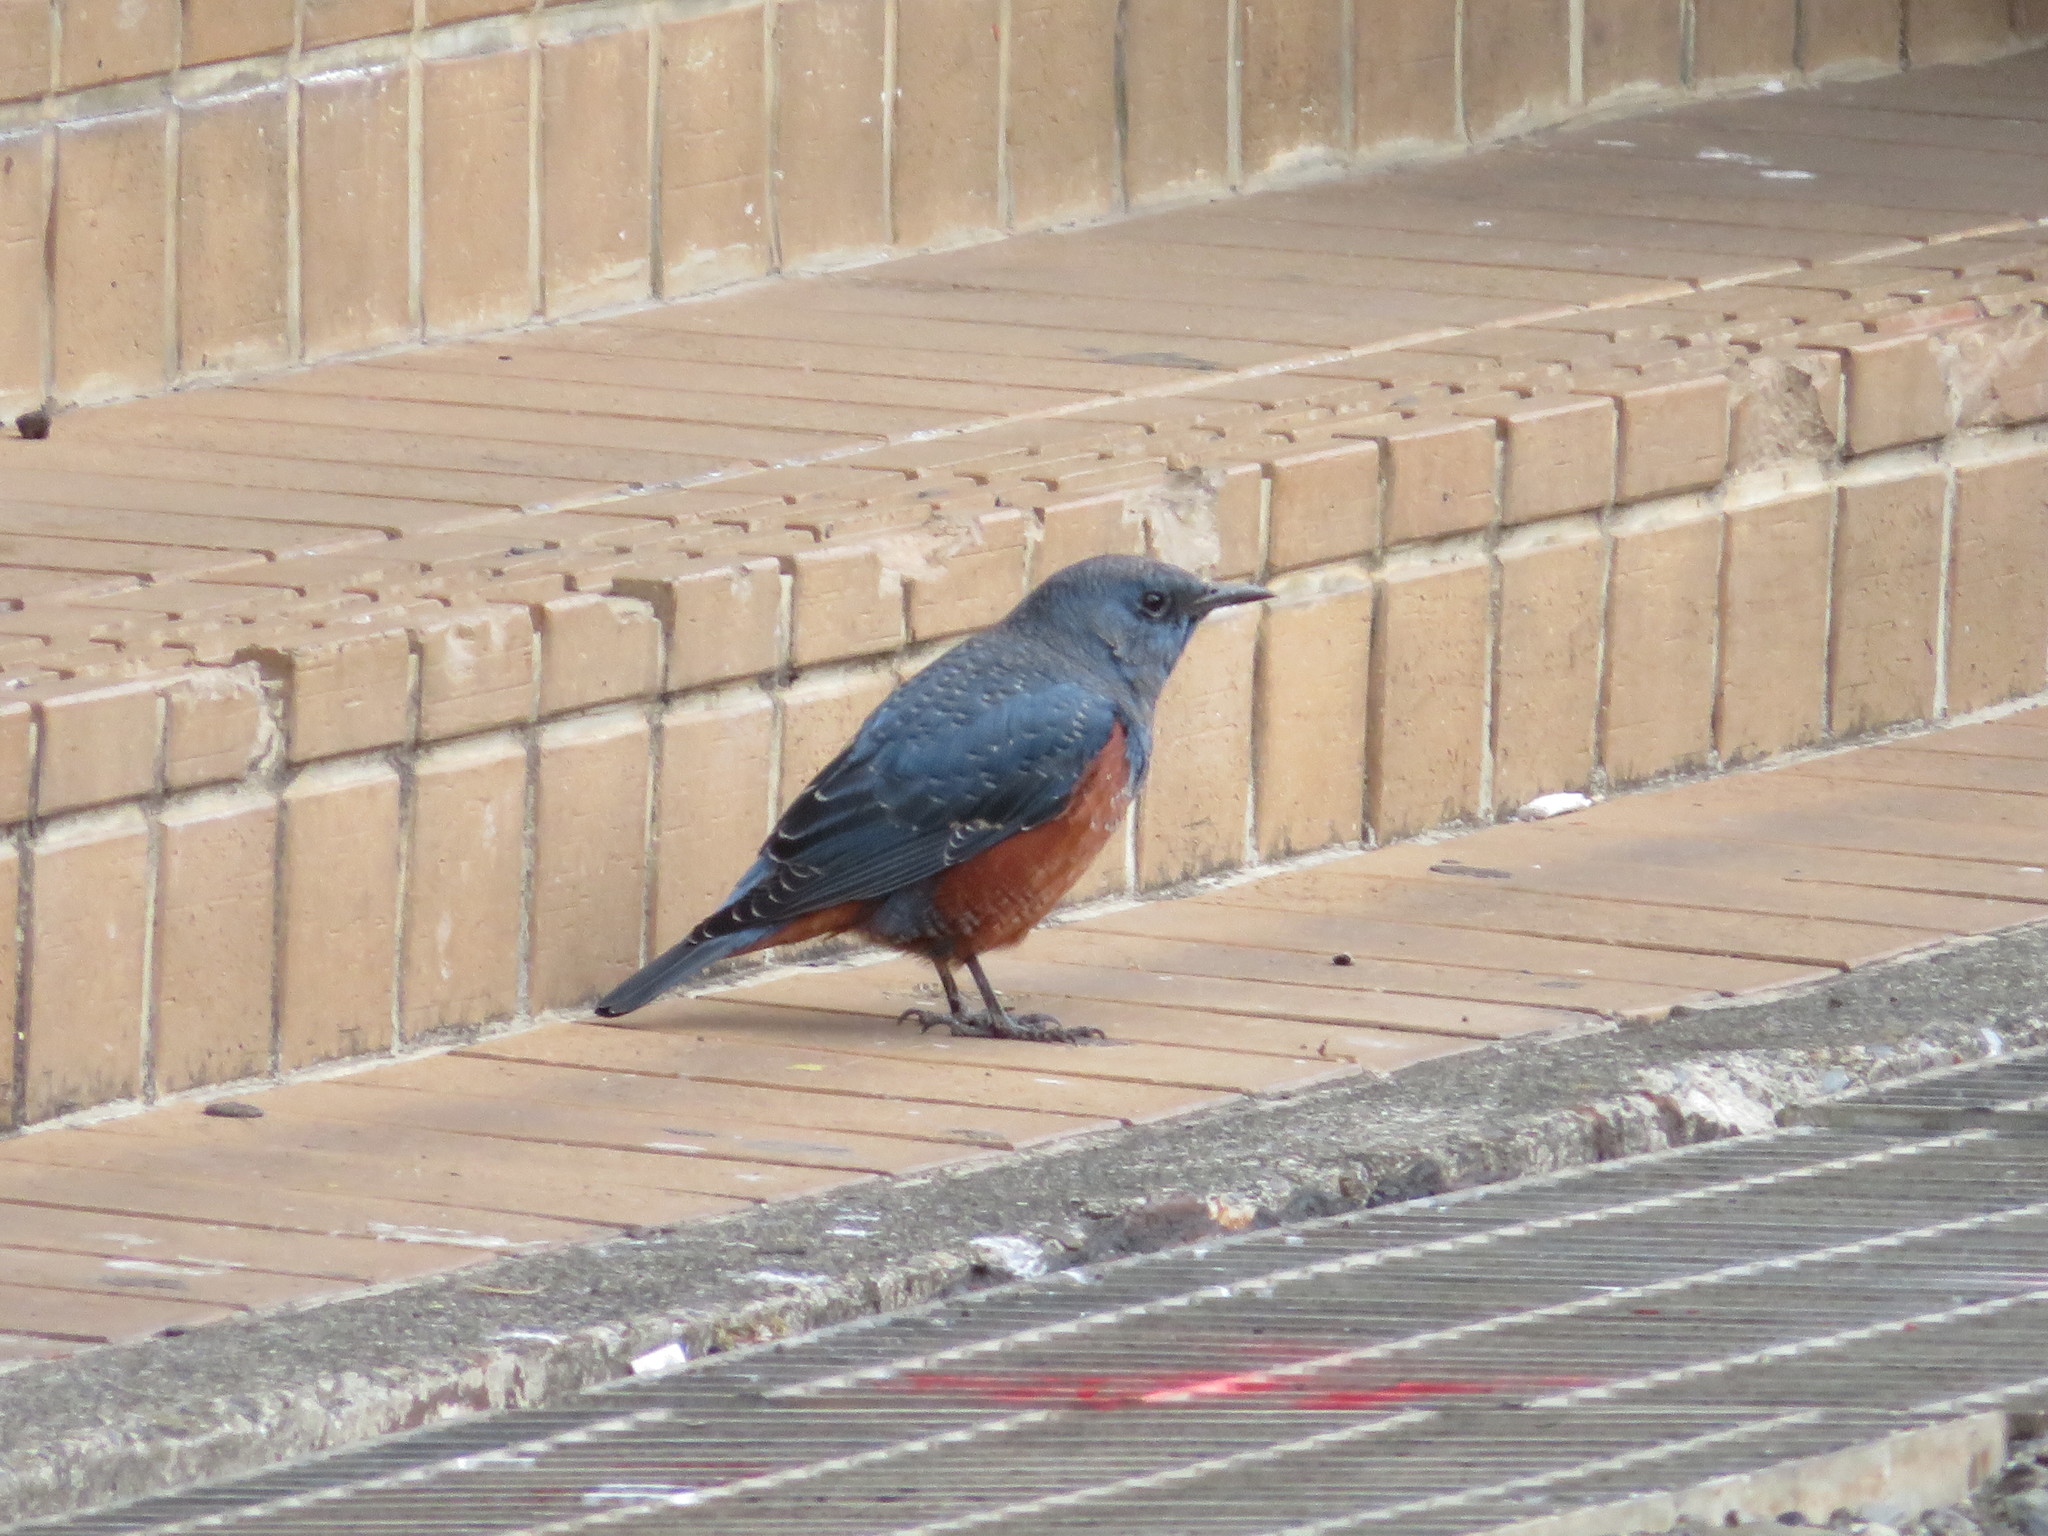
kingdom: Animalia
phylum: Chordata
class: Aves
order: Passeriformes
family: Muscicapidae
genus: Monticola
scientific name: Monticola solitarius
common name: Blue rock thrush
